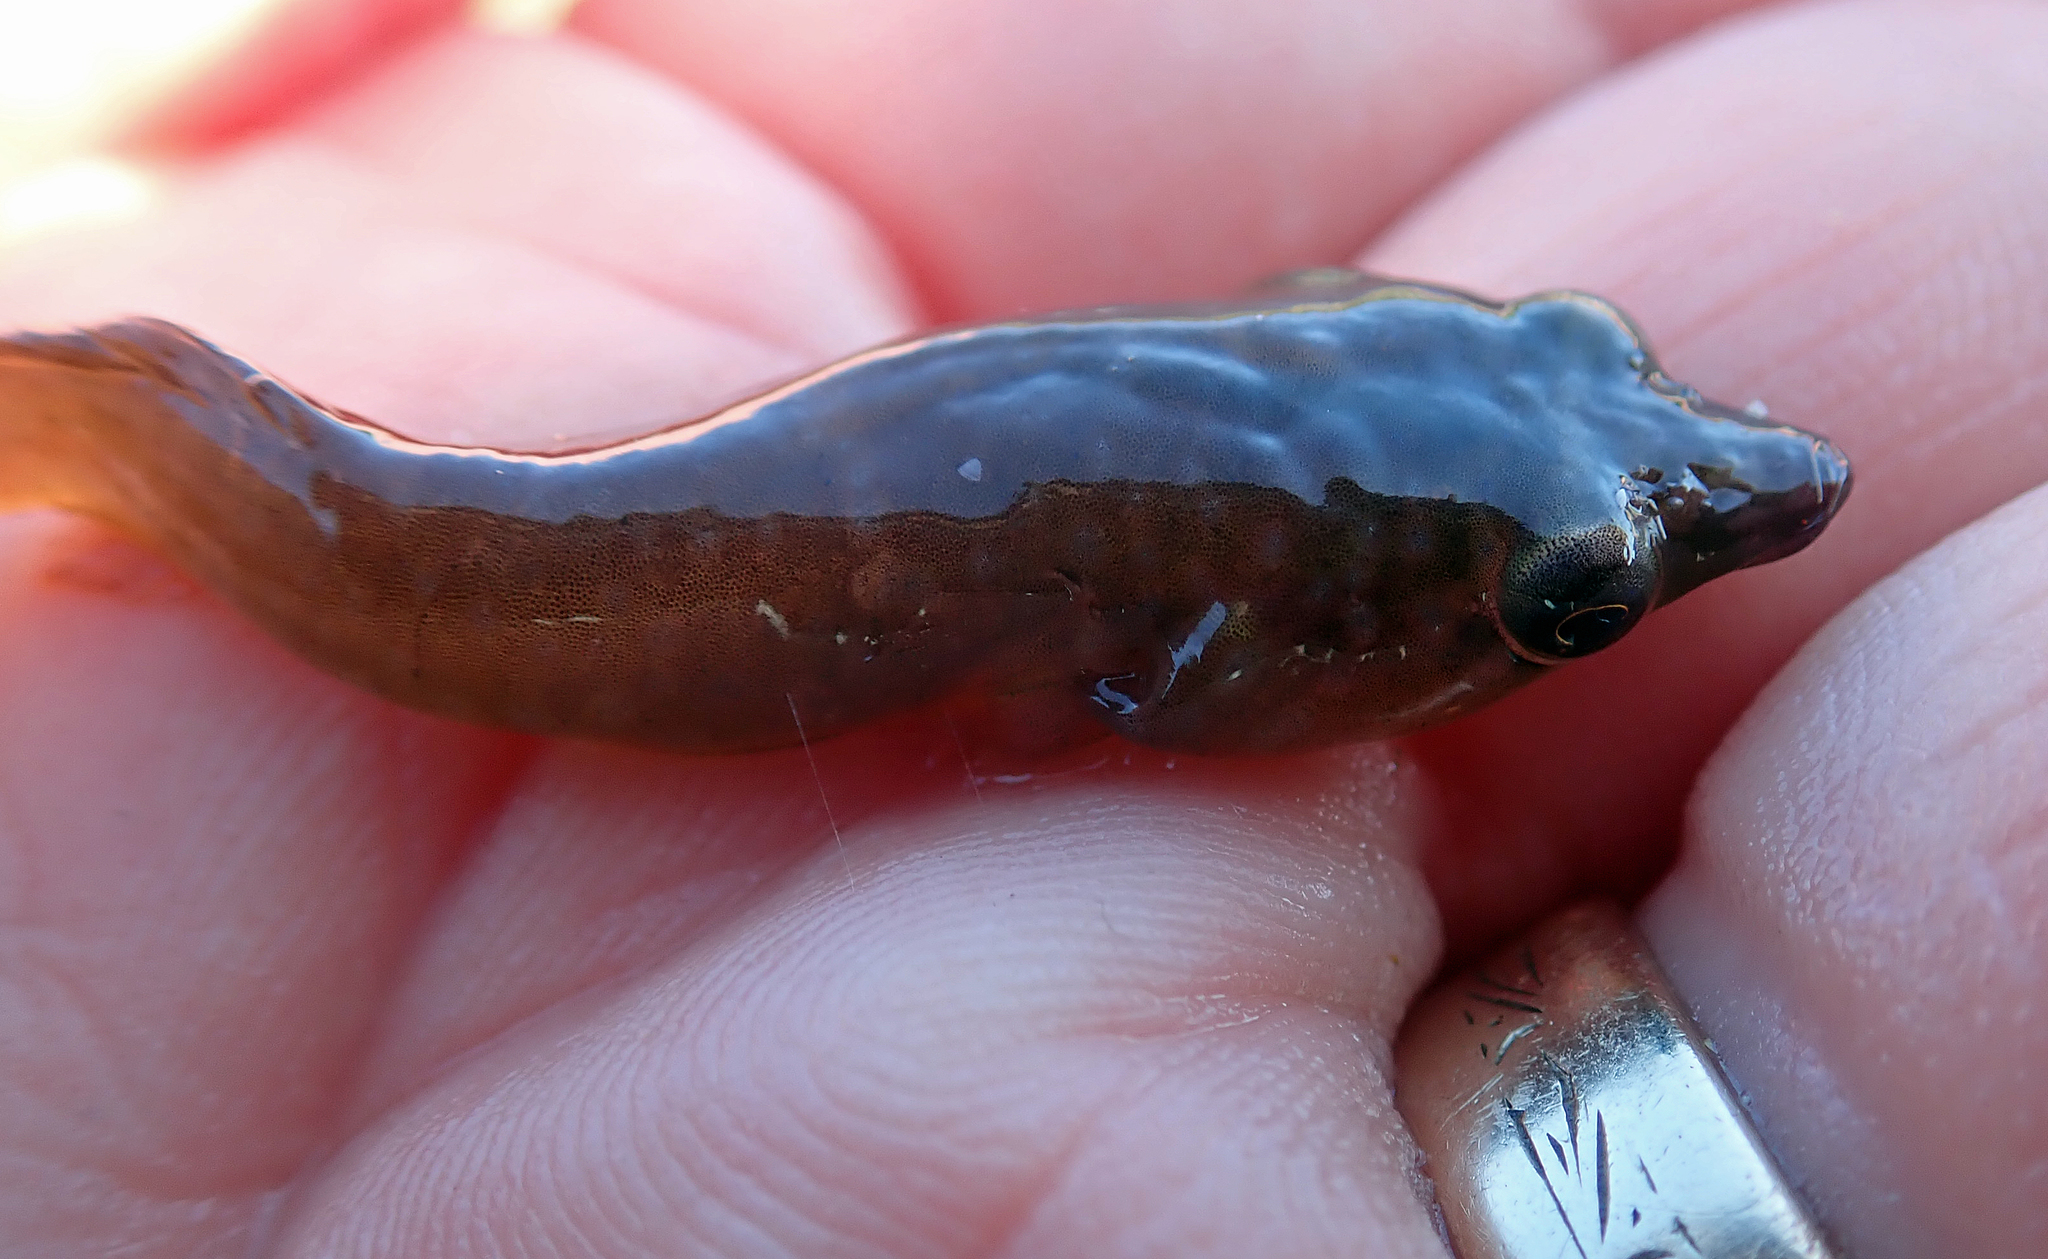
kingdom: Animalia
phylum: Chordata
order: Gobiesociformes
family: Gobiesocidae
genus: Dellichthys
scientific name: Dellichthys morelandi
